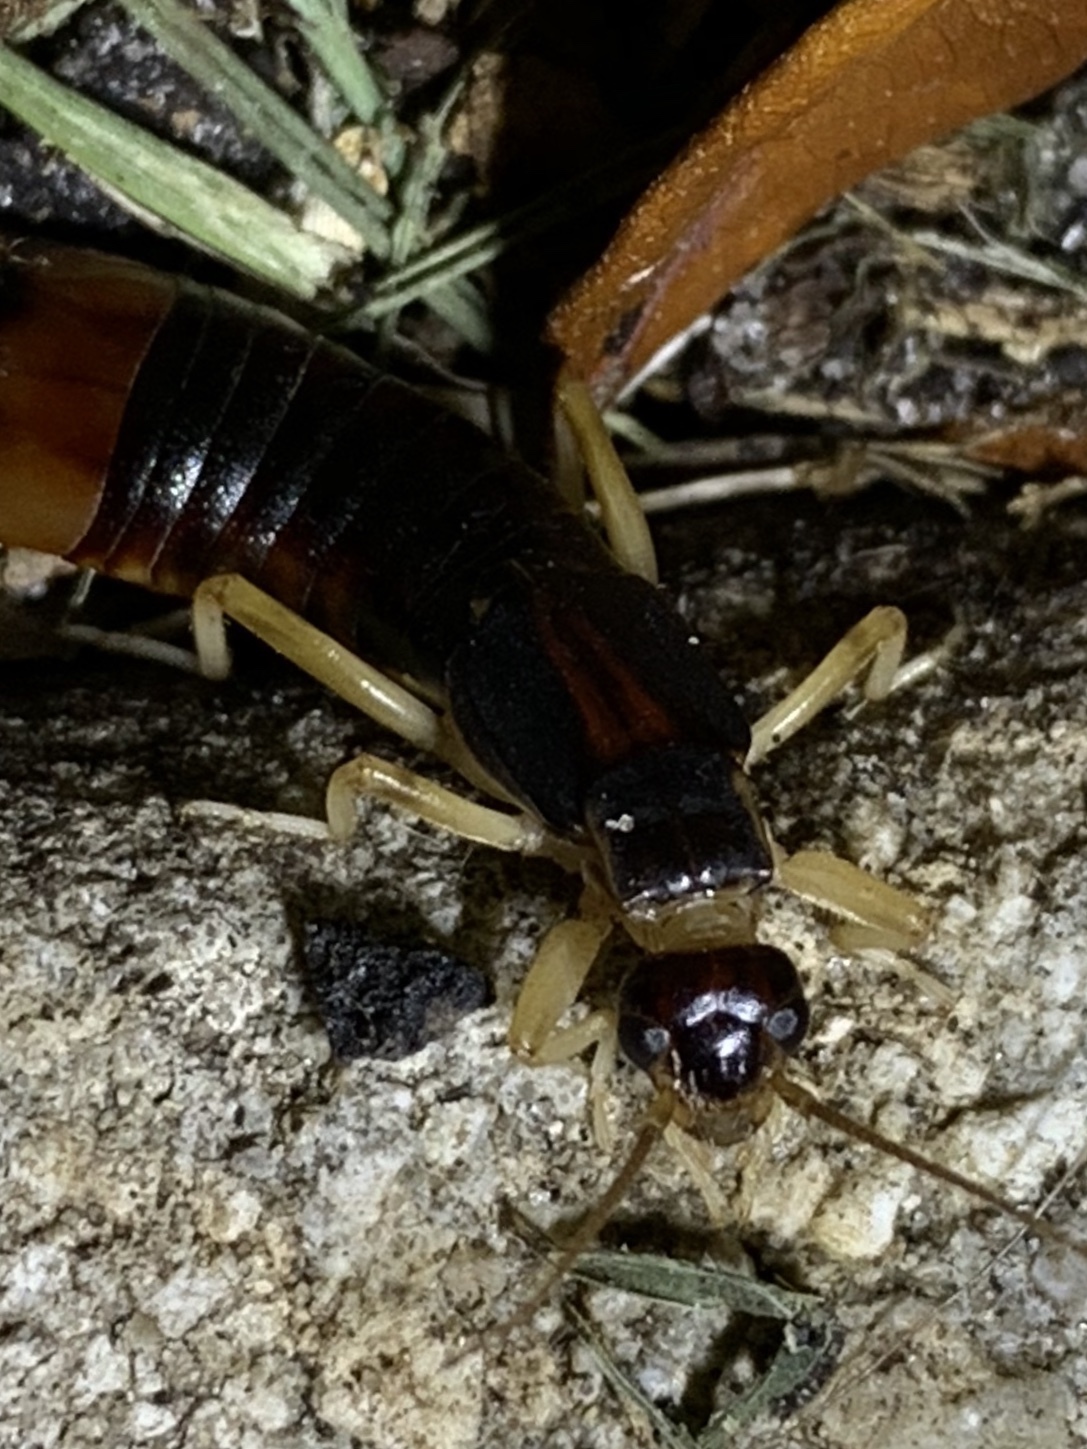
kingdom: Animalia
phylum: Arthropoda
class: Insecta
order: Dermaptera
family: Labiduridae
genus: Labidura
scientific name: Labidura riparia
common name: Striped earwig
